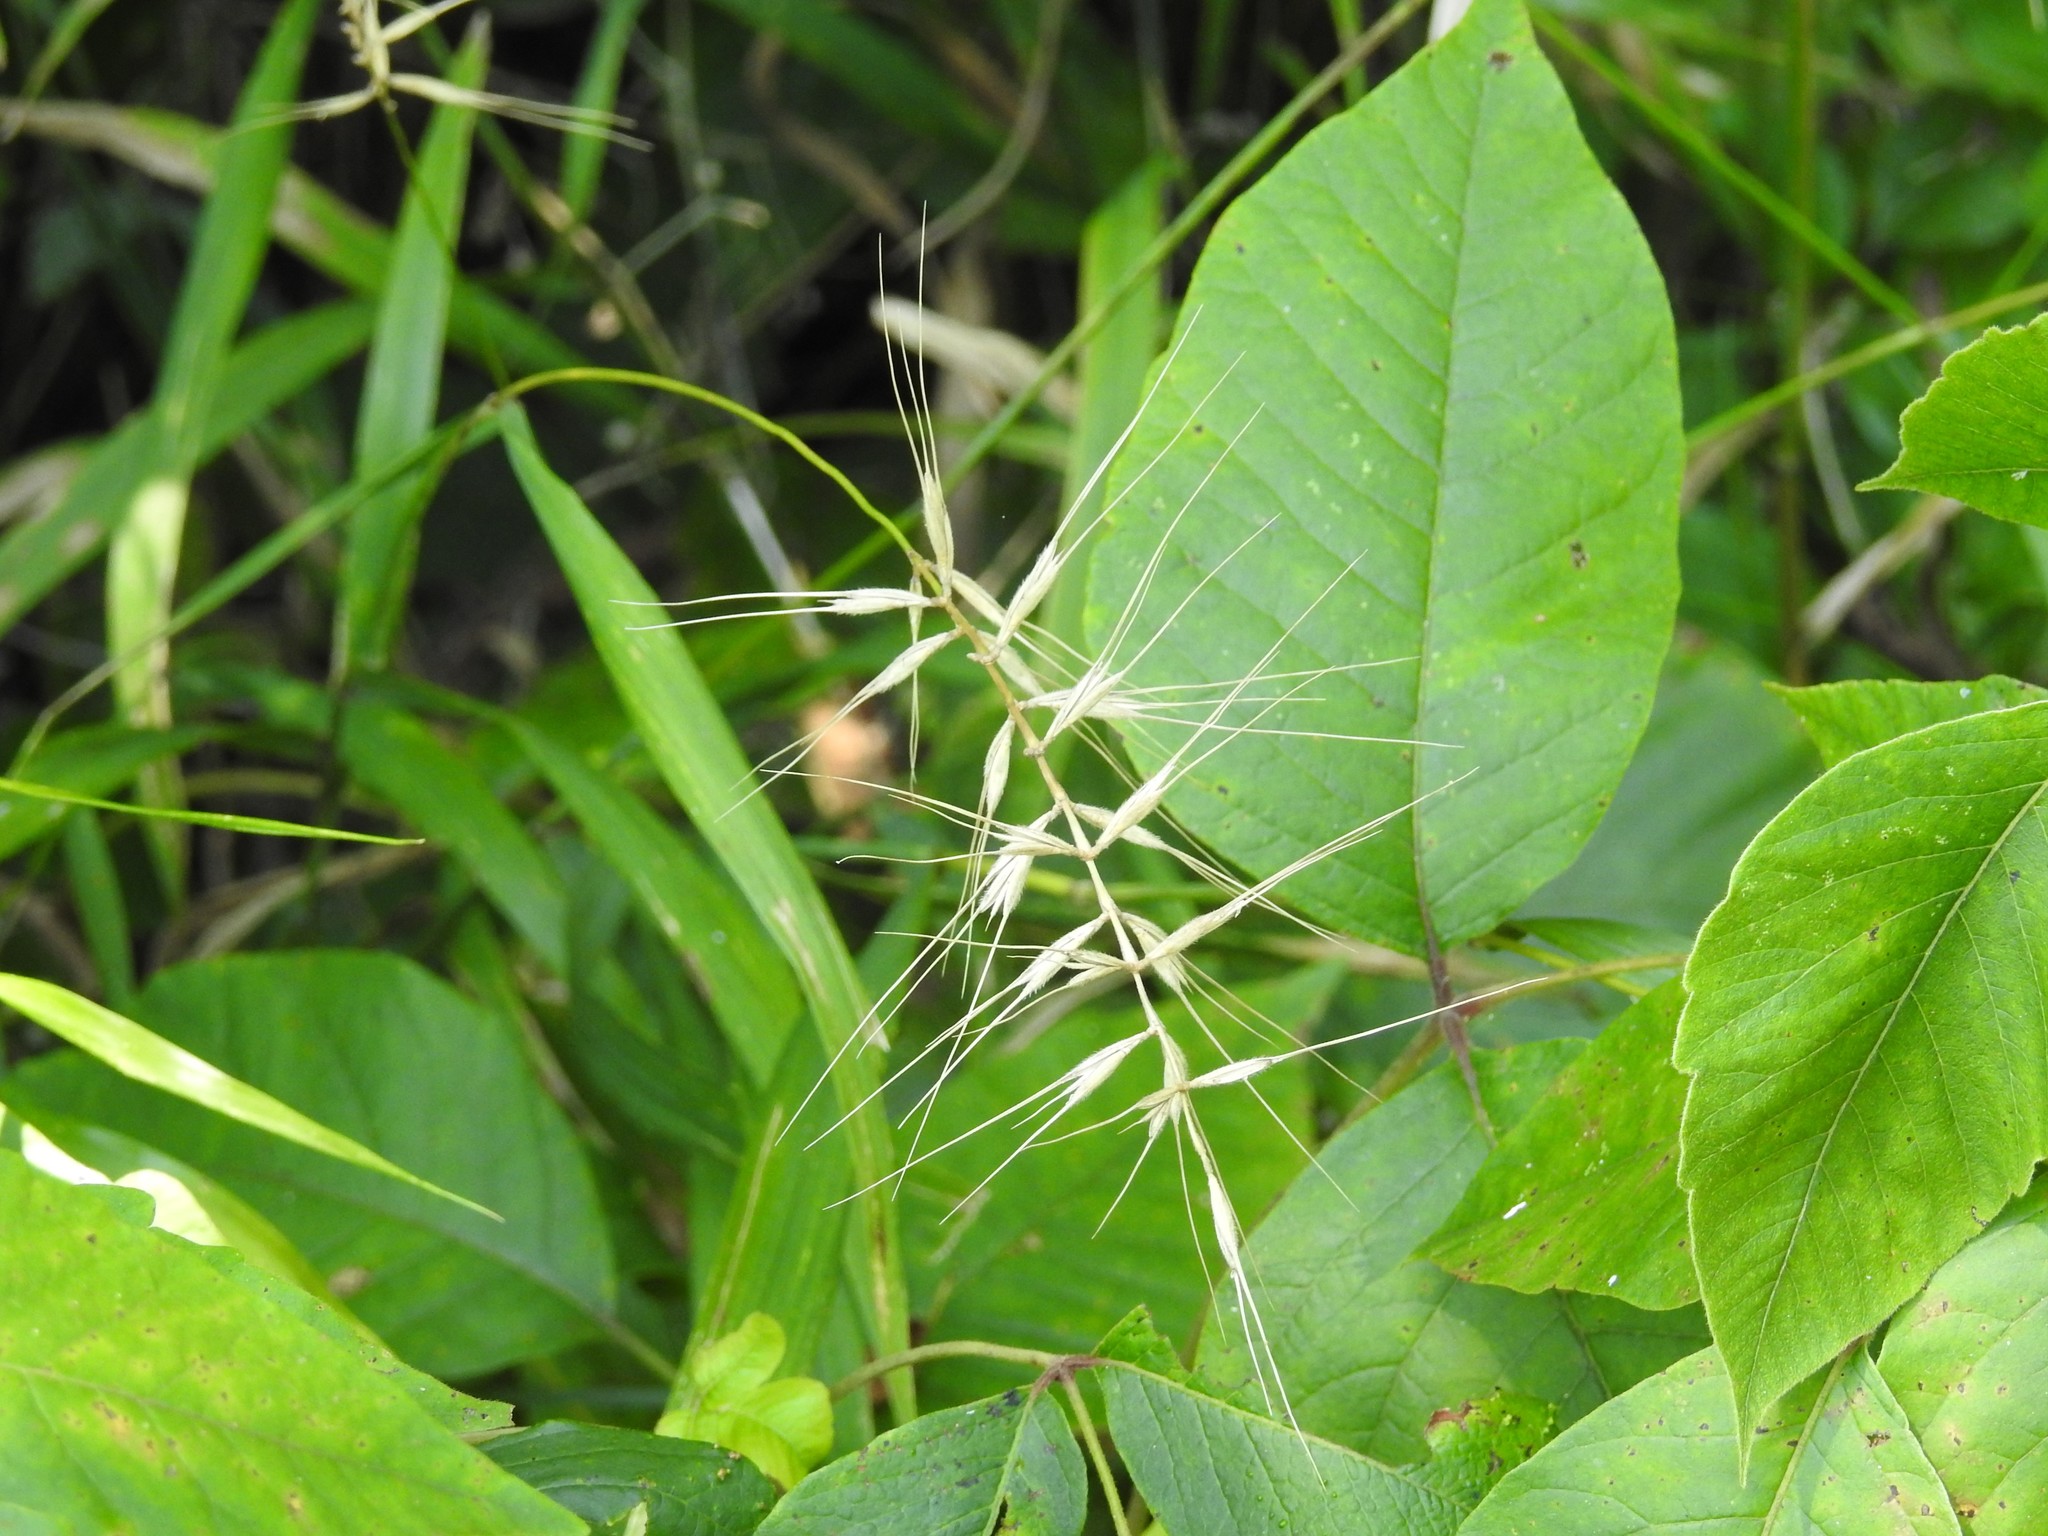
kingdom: Plantae
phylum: Tracheophyta
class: Liliopsida
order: Poales
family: Poaceae
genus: Elymus
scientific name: Elymus hystrix
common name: Bottlebrush grass
